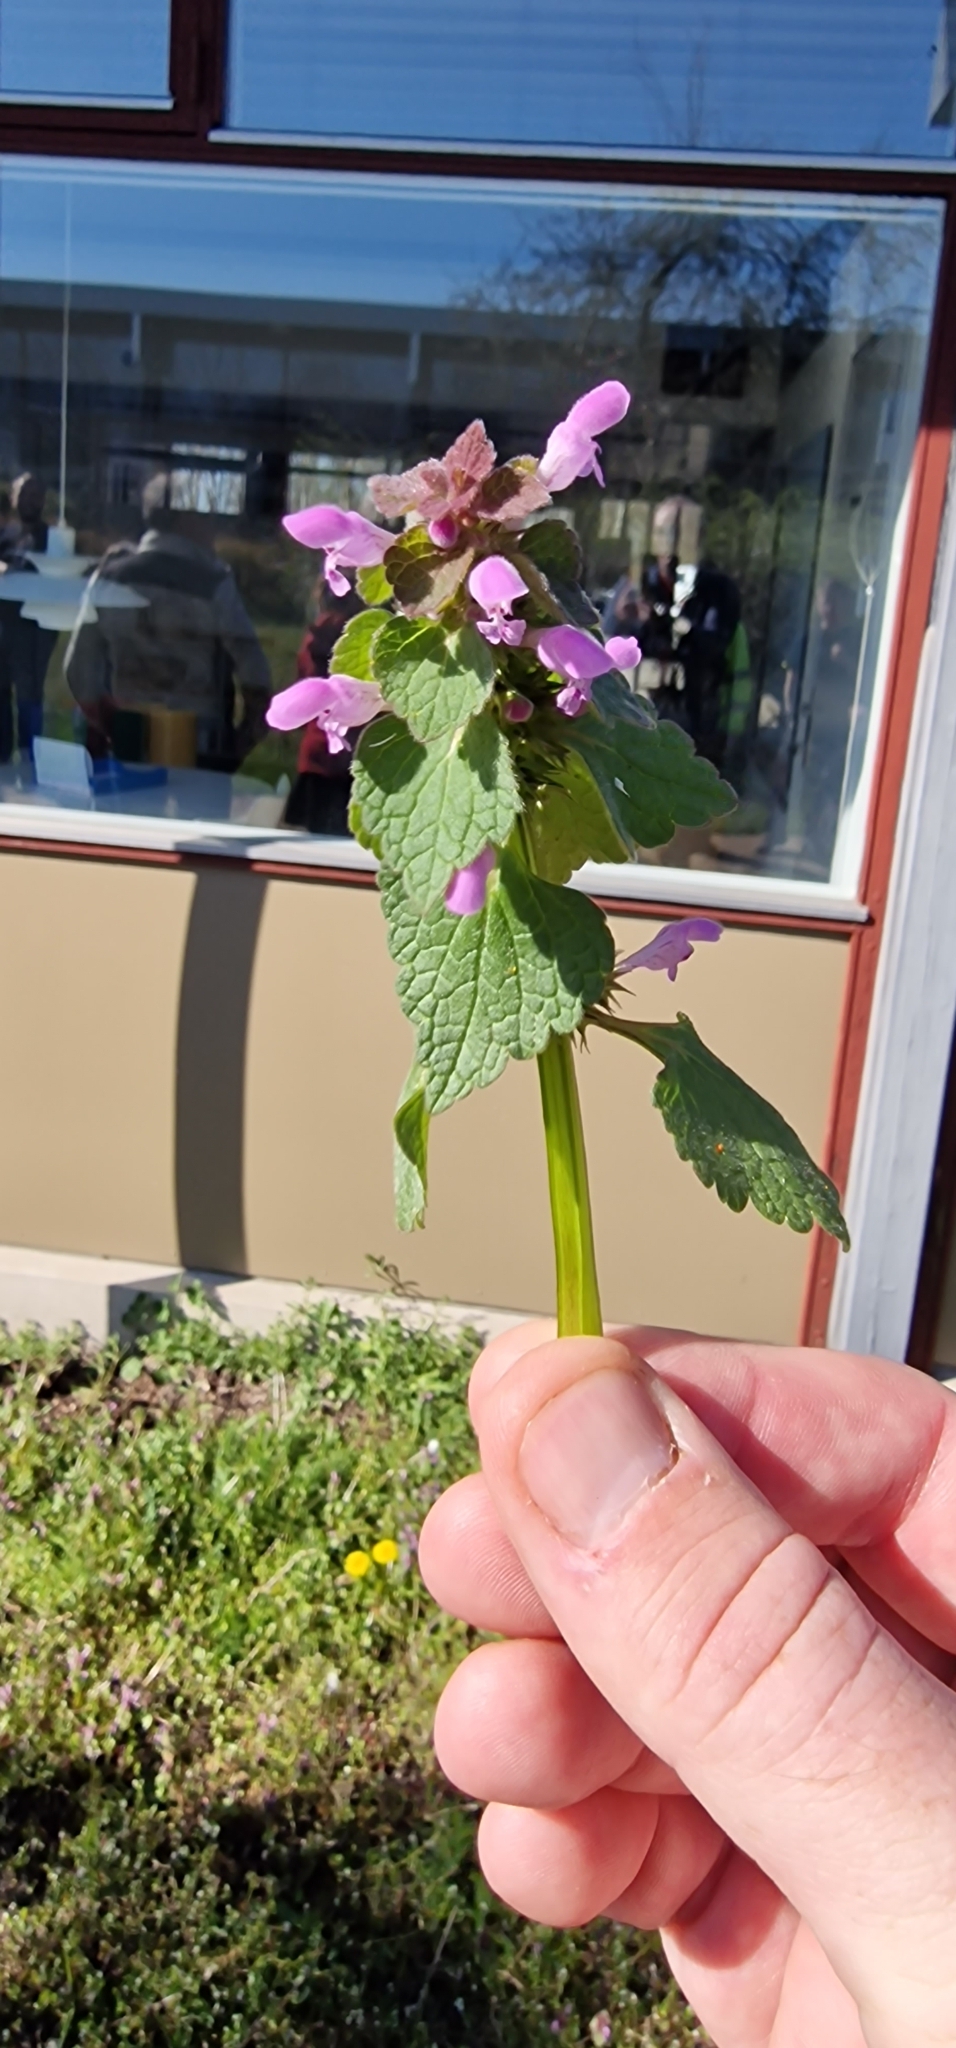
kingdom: Plantae
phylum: Tracheophyta
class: Magnoliopsida
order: Lamiales
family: Lamiaceae
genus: Lamium
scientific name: Lamium purpureum
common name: Red dead-nettle
